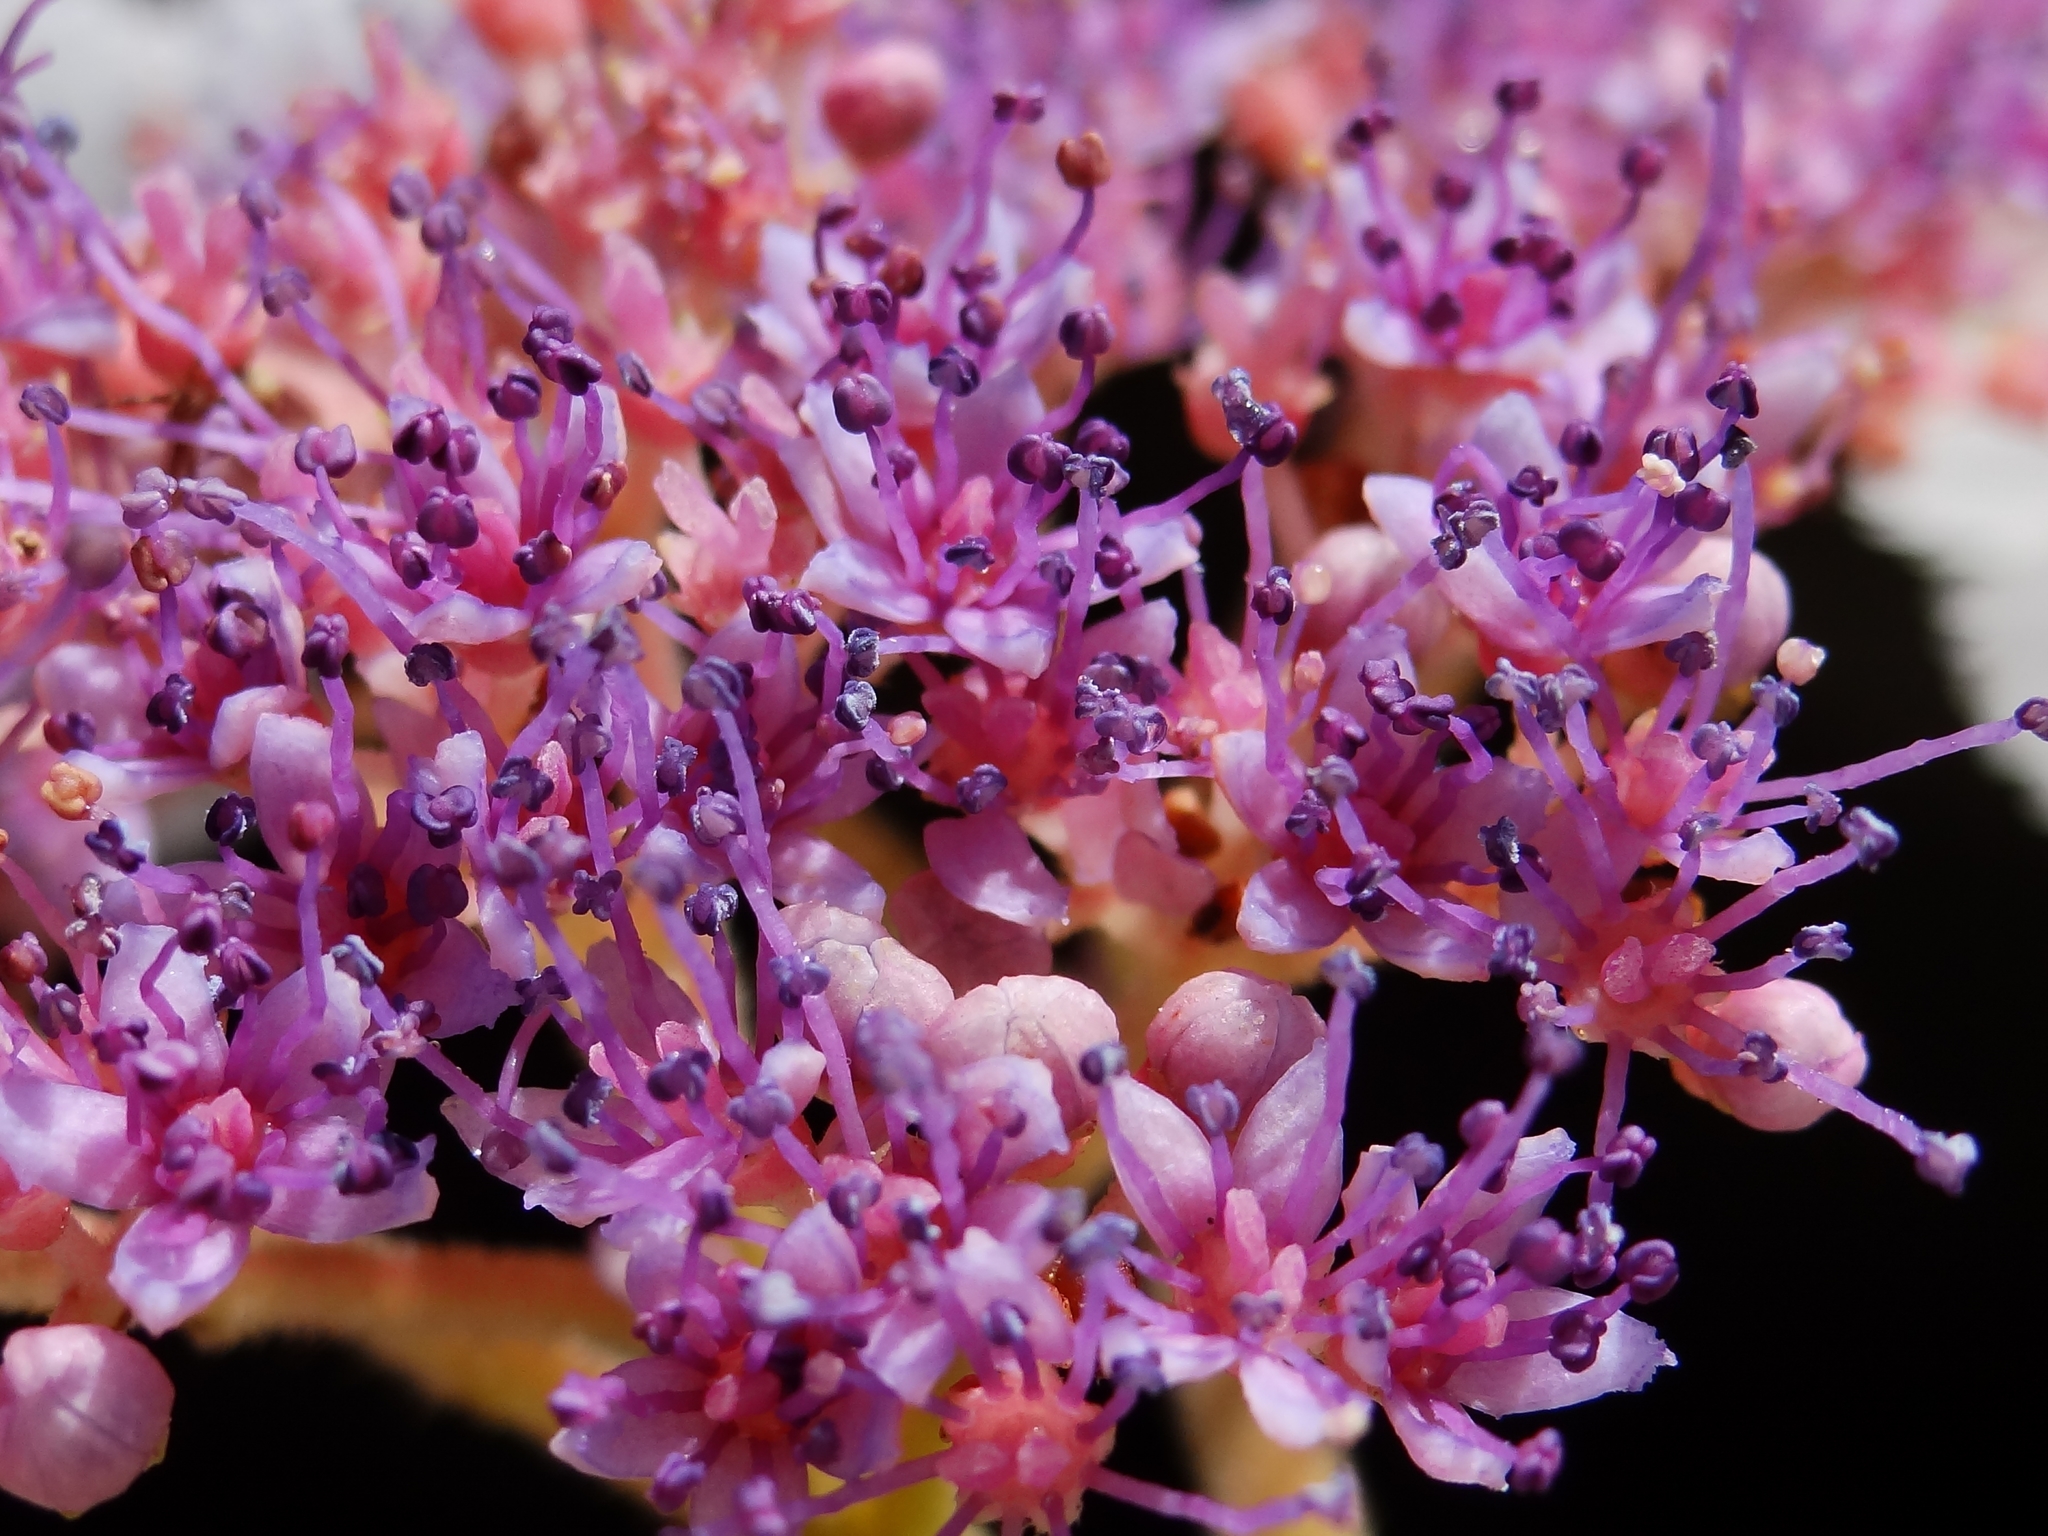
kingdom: Plantae
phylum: Tracheophyta
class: Magnoliopsida
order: Cornales
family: Hydrangeaceae
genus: Hydrangea
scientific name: Hydrangea aspera
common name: Rough-leaf hydrangea
